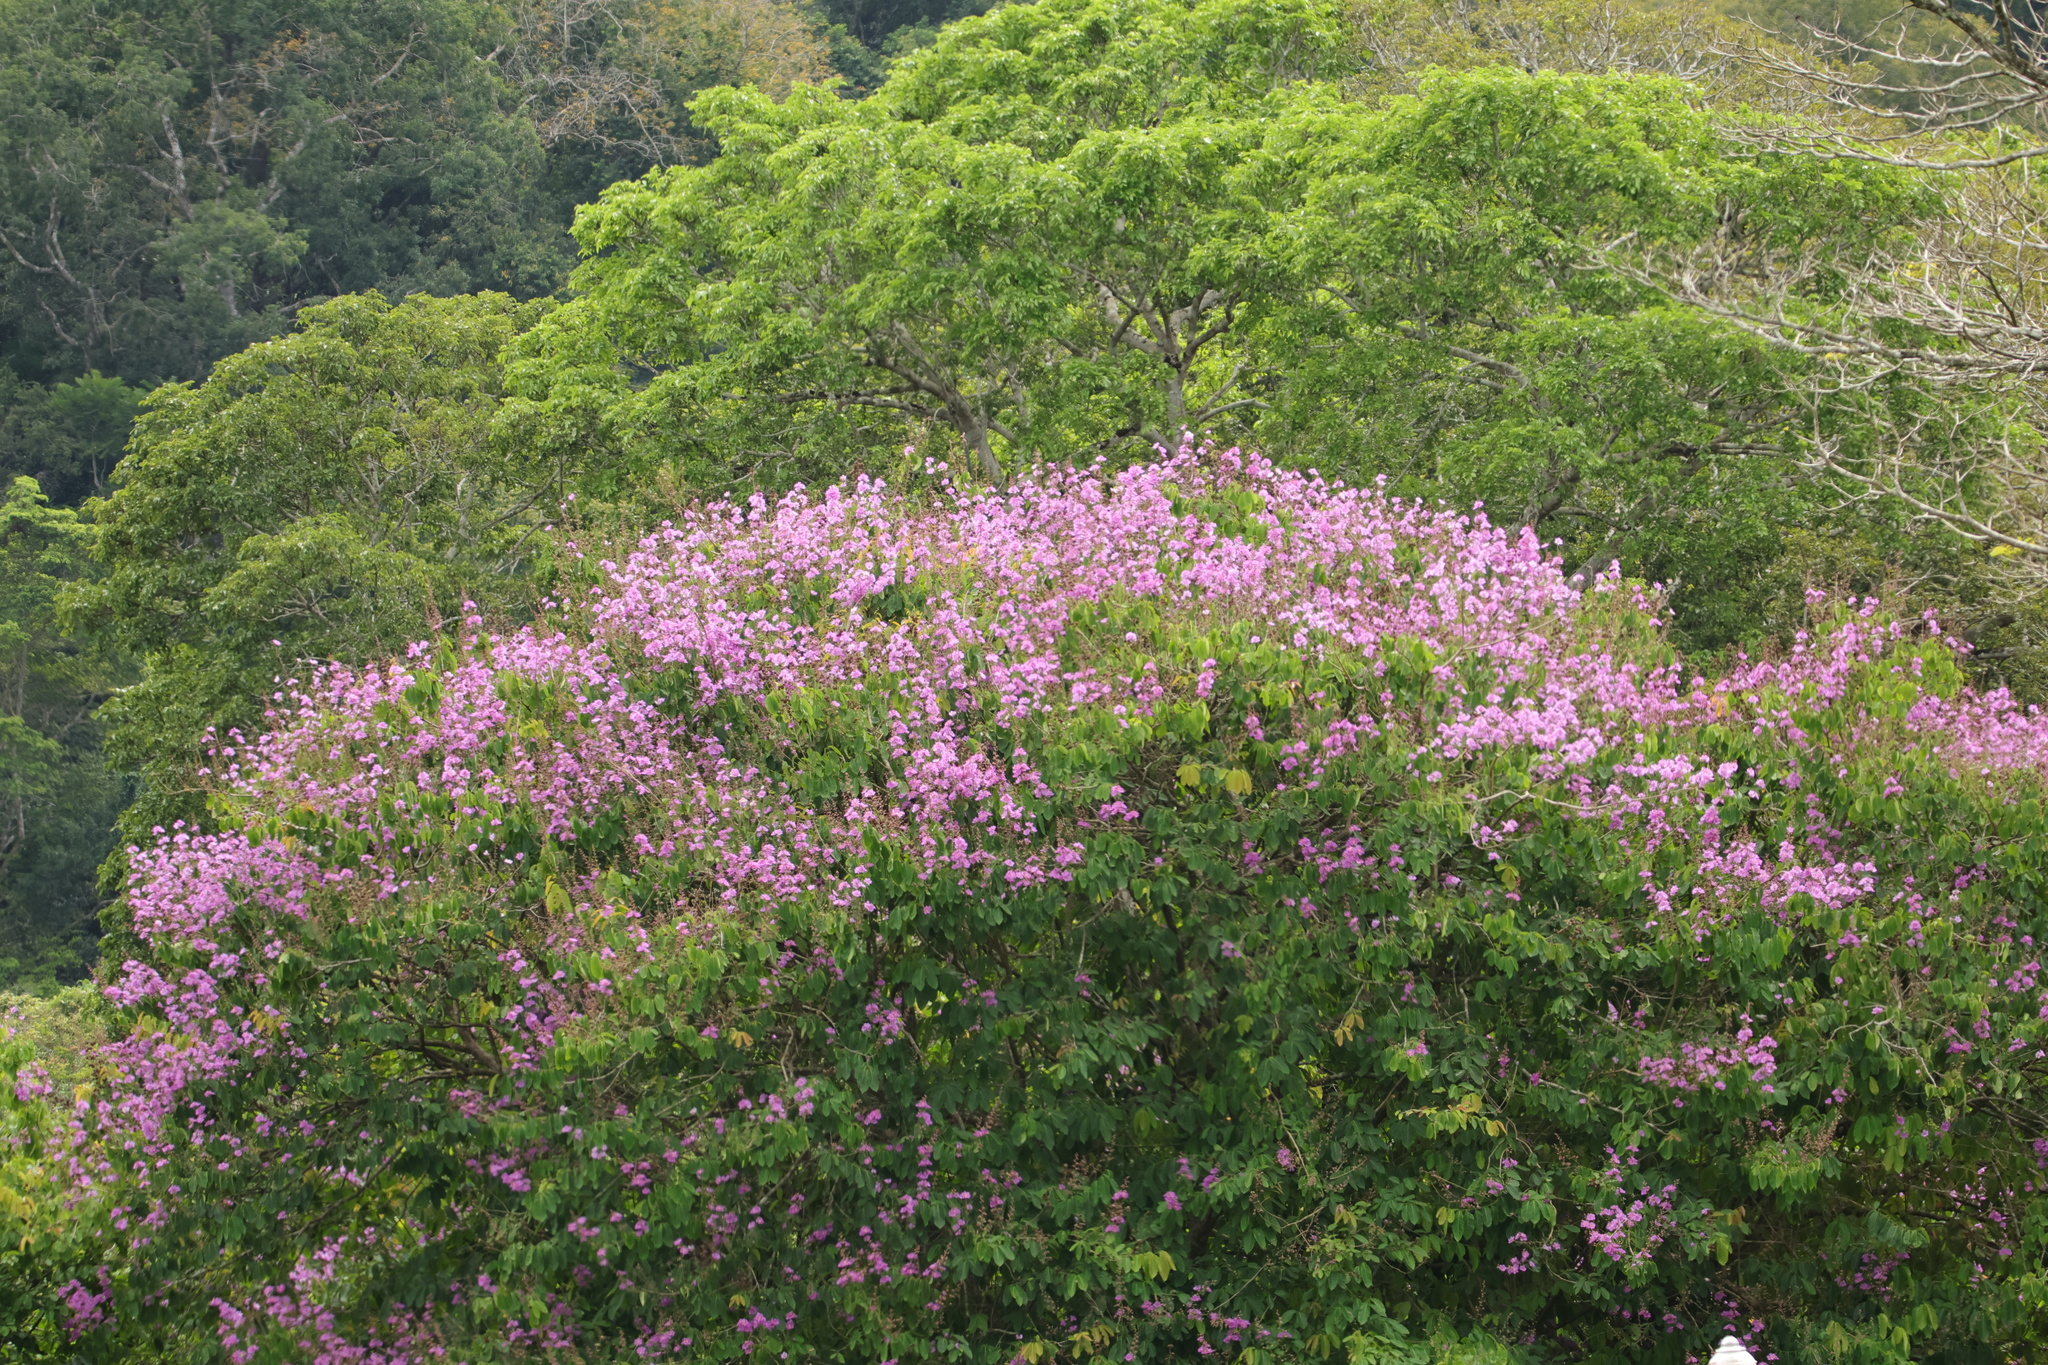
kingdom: Plantae
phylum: Tracheophyta
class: Magnoliopsida
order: Fabales
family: Fabaceae
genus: Dipteryx
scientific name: Dipteryx oleifera
